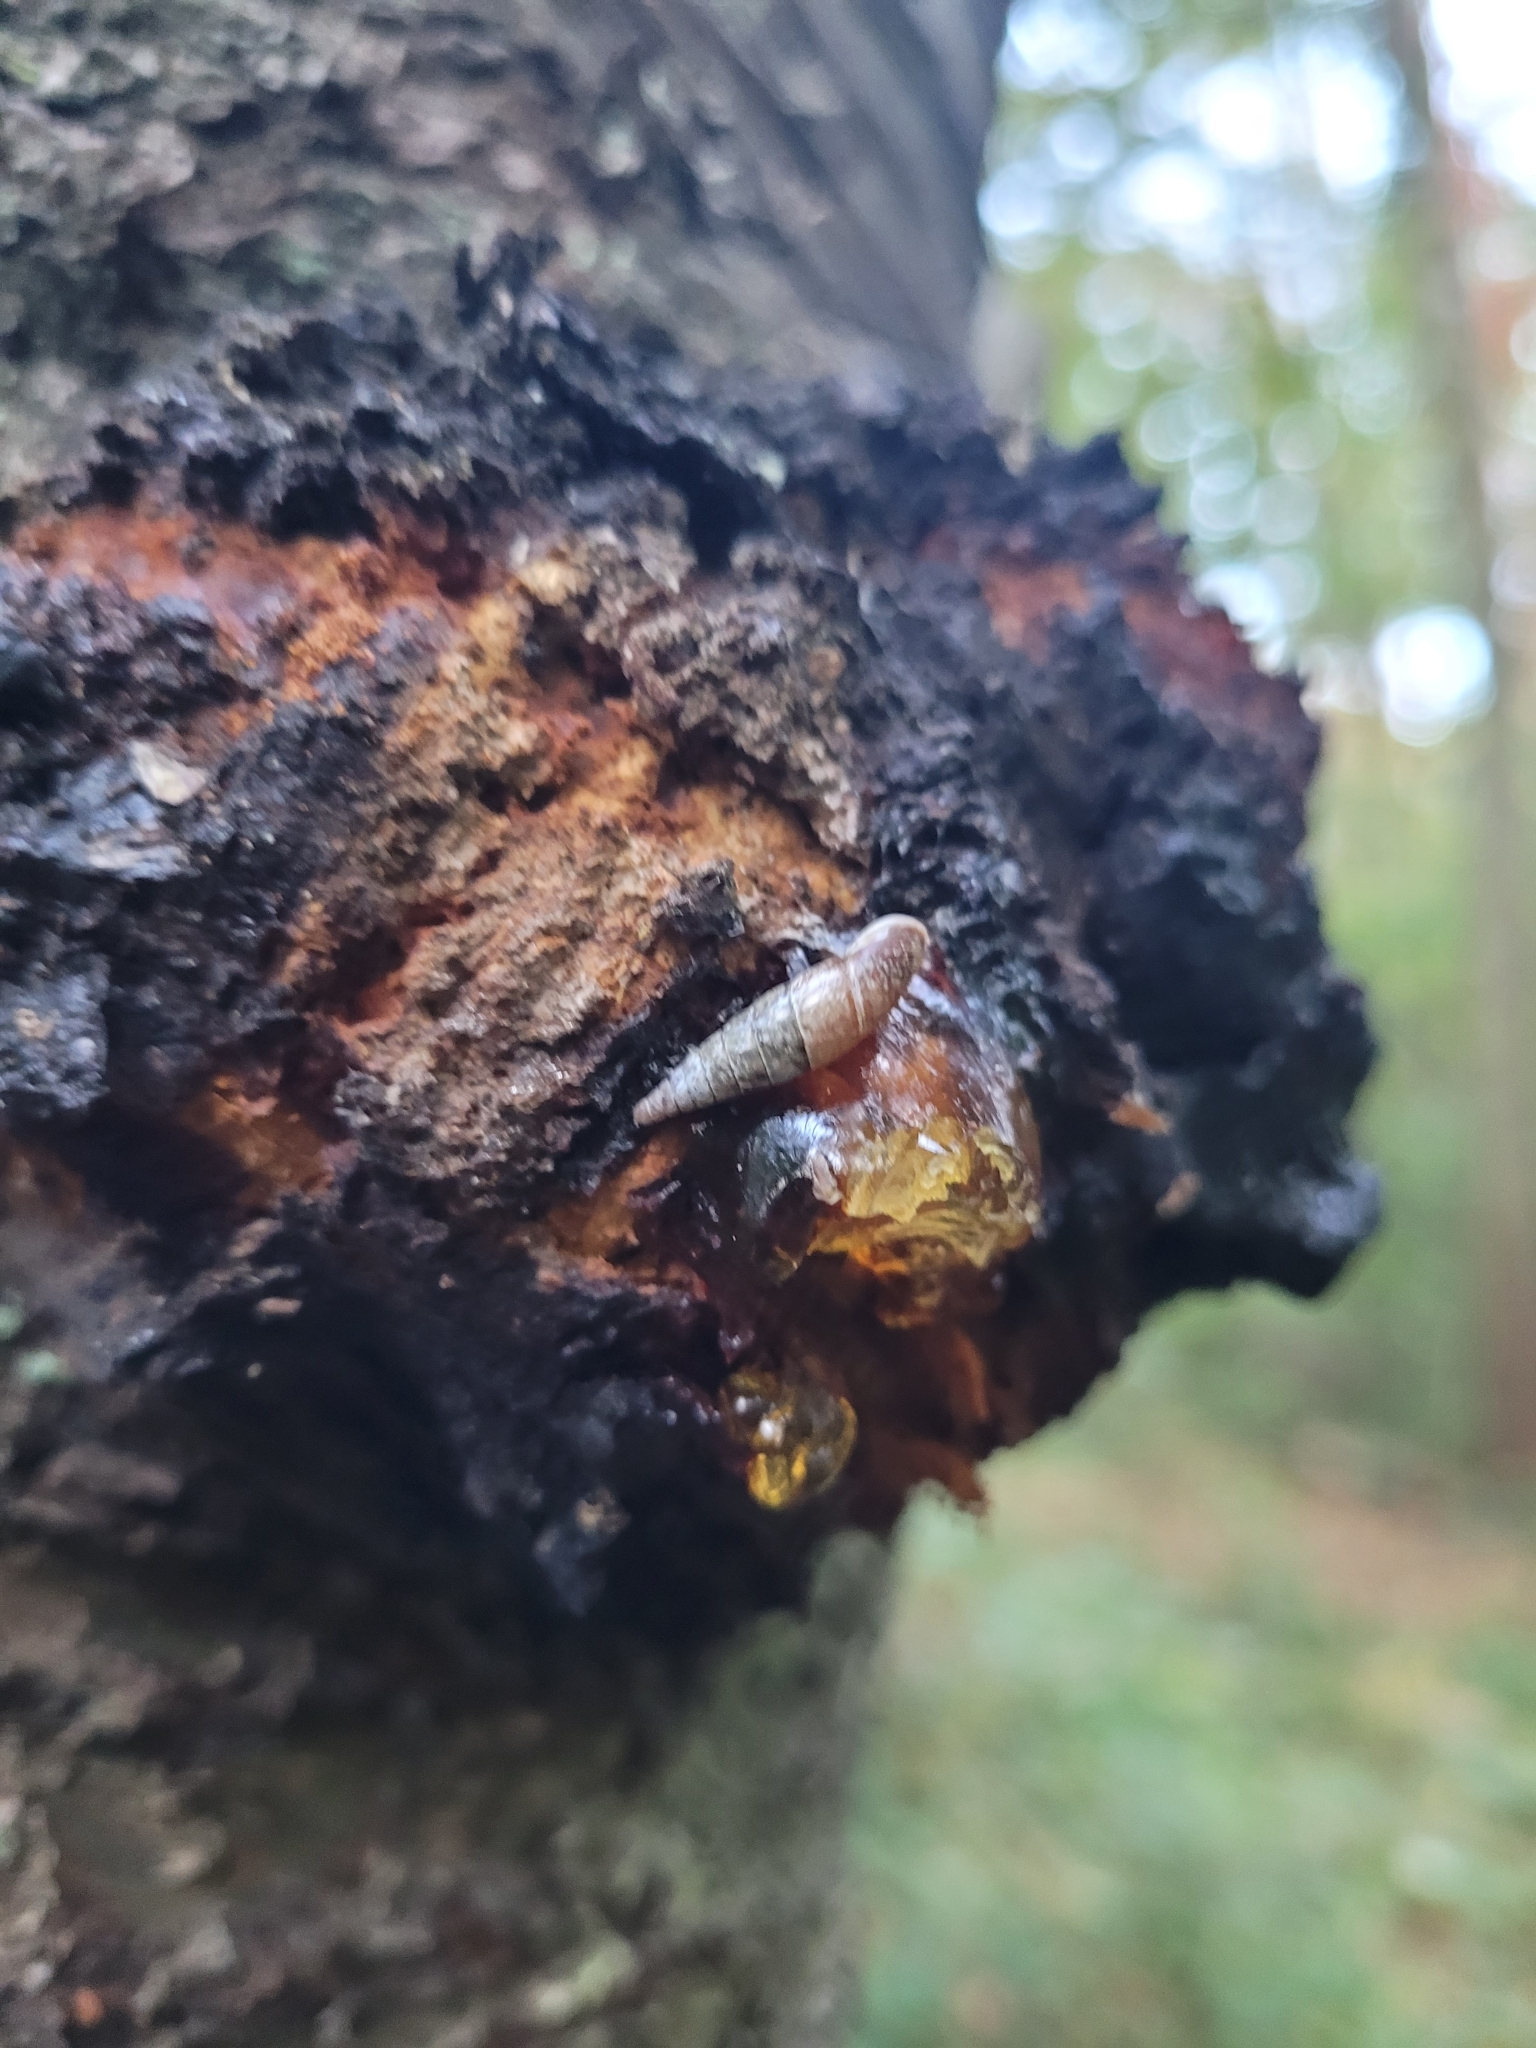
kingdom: Animalia
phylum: Mollusca
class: Gastropoda
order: Stylommatophora
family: Clausiliidae
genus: Cochlodina
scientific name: Cochlodina laminata
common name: Plaited door snail
